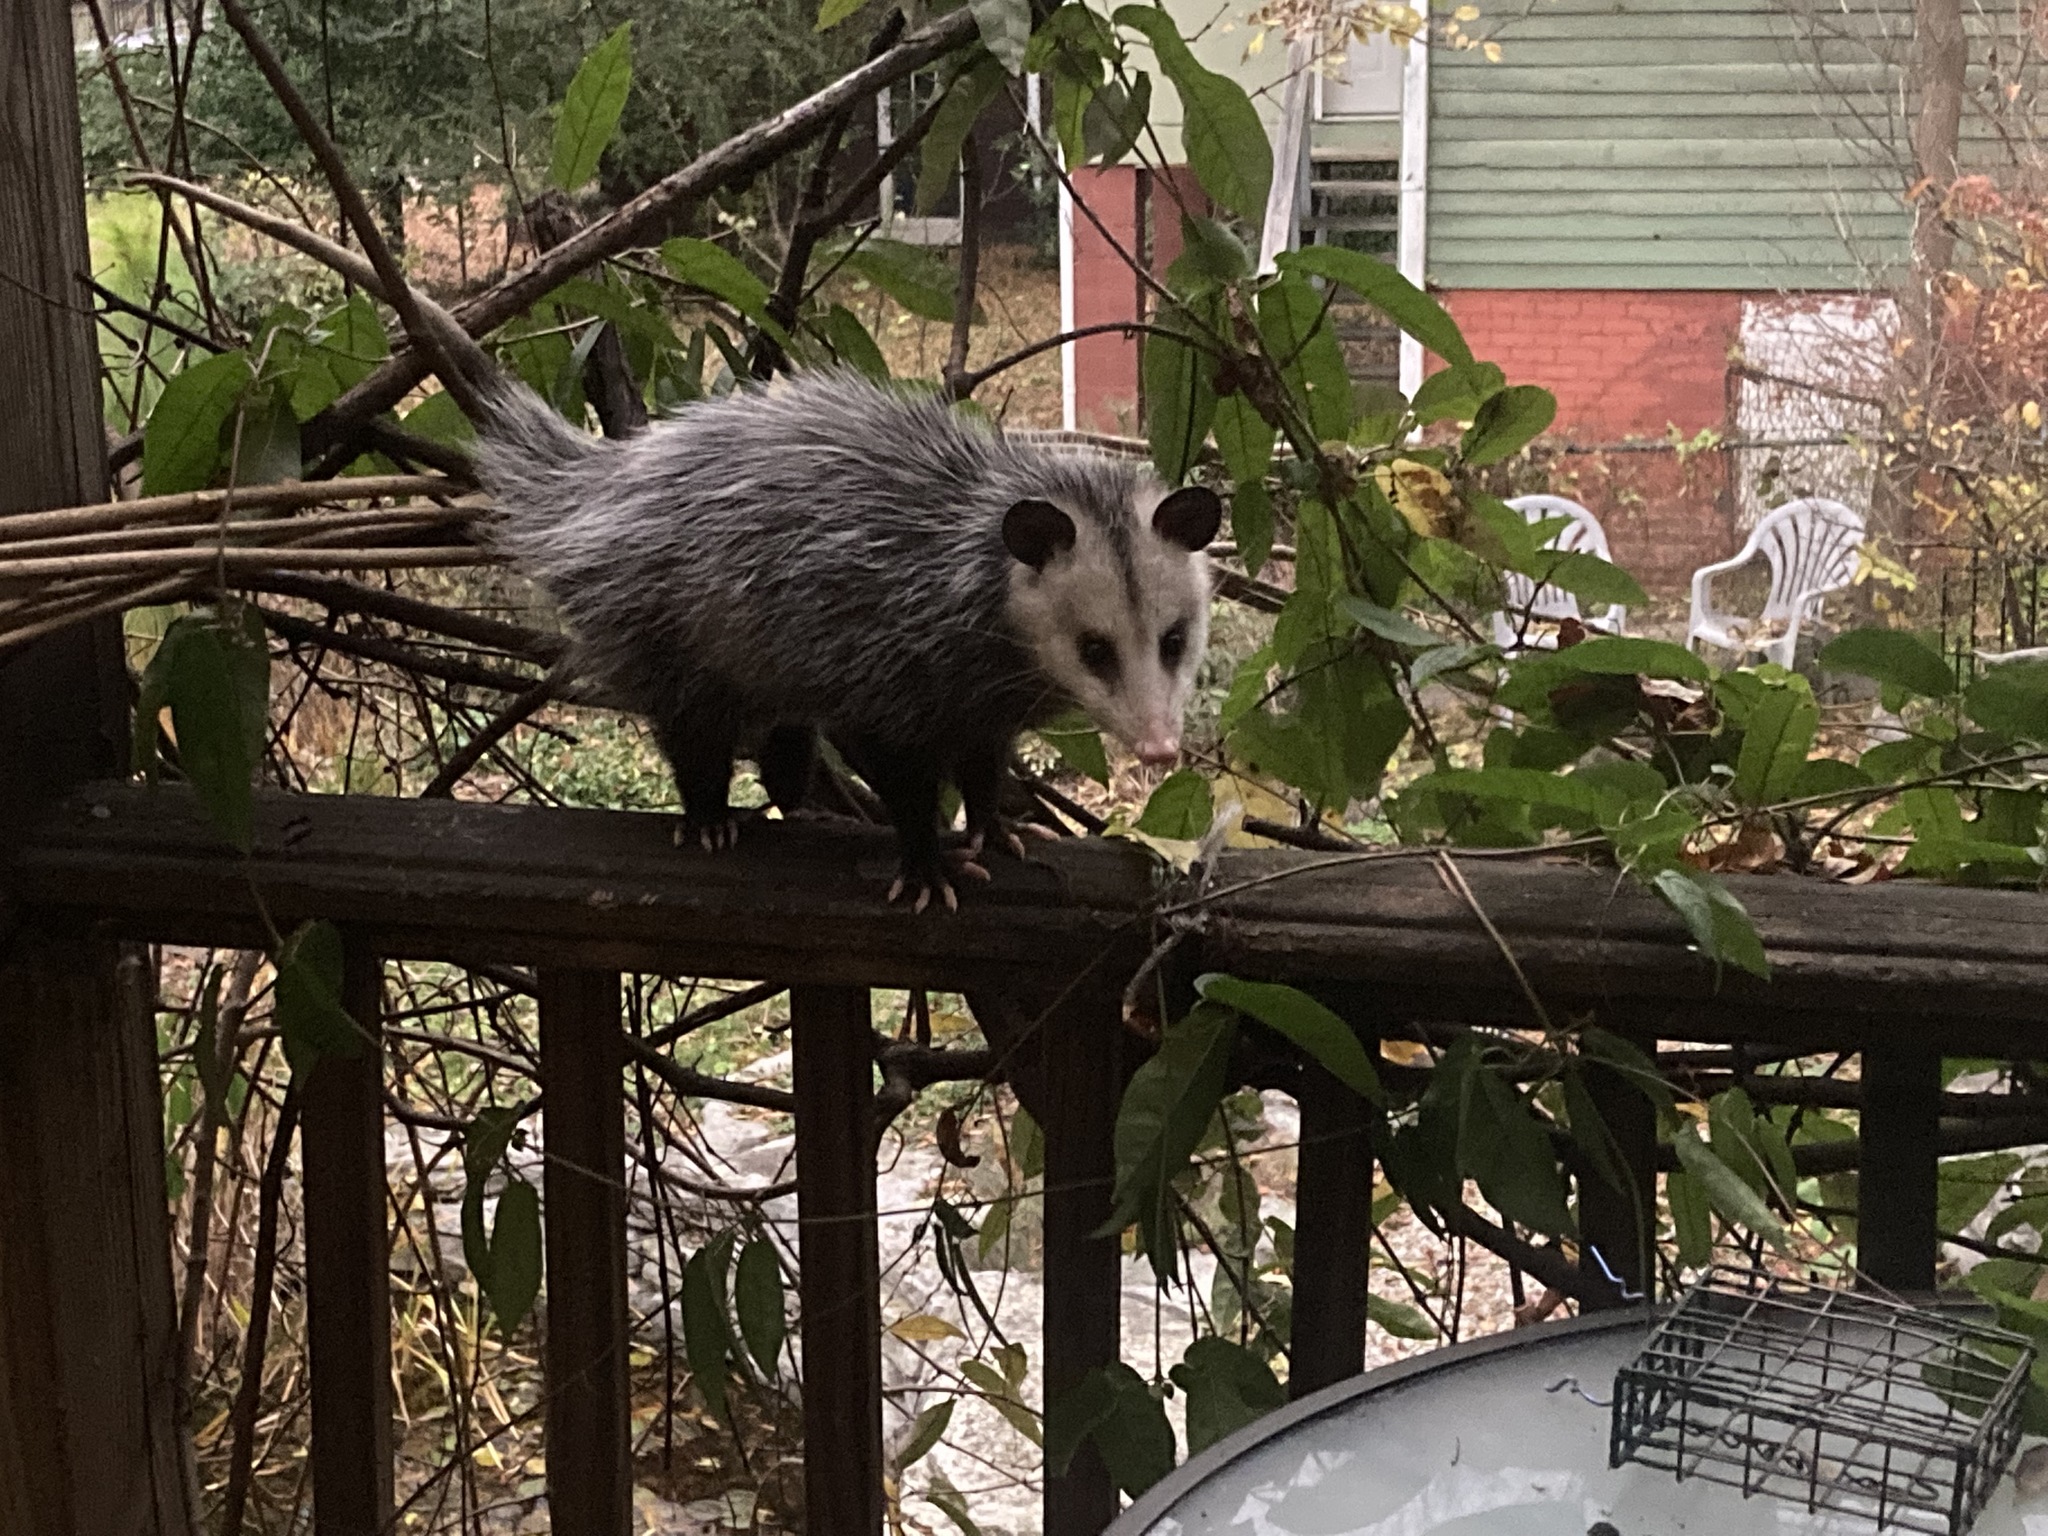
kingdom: Animalia
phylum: Chordata
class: Mammalia
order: Didelphimorphia
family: Didelphidae
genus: Didelphis
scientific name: Didelphis virginiana
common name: Virginia opossum
